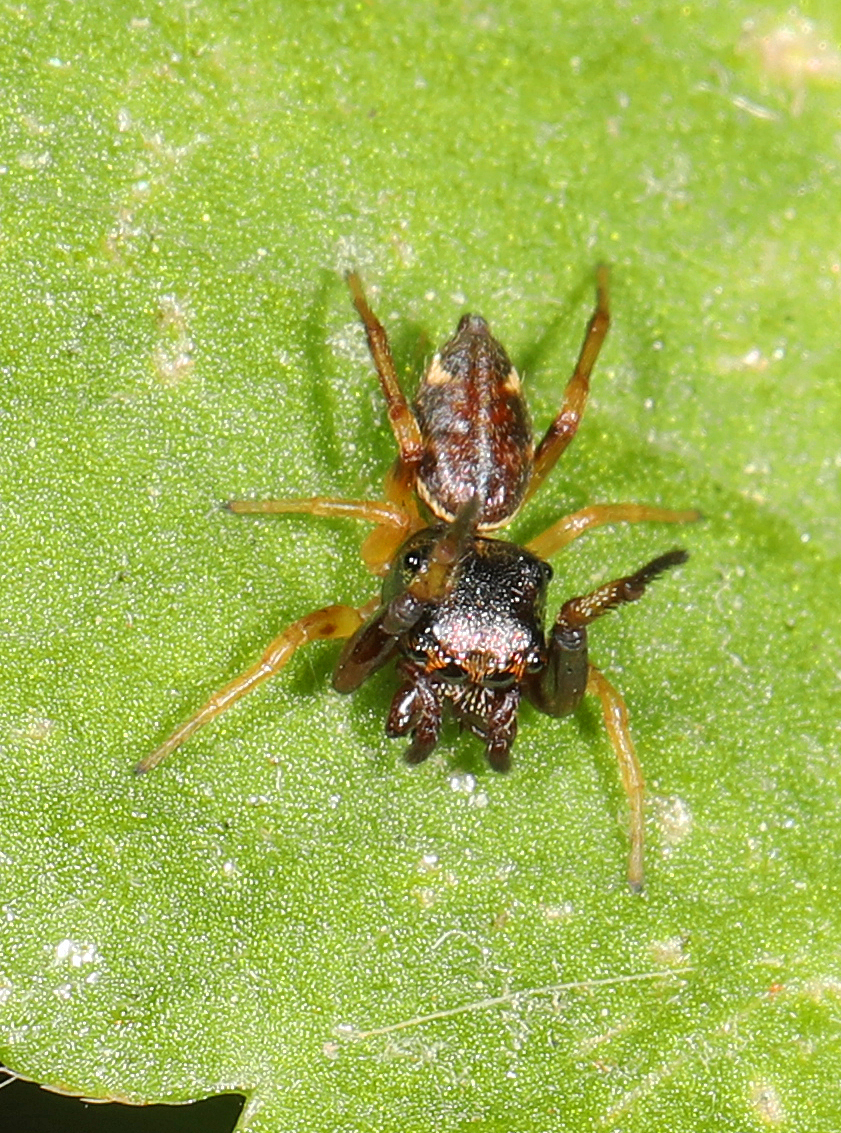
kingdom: Animalia
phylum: Arthropoda
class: Arachnida
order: Araneae
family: Salticidae
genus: Zygoballus
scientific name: Zygoballus rufipes
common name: Jumping spiders
